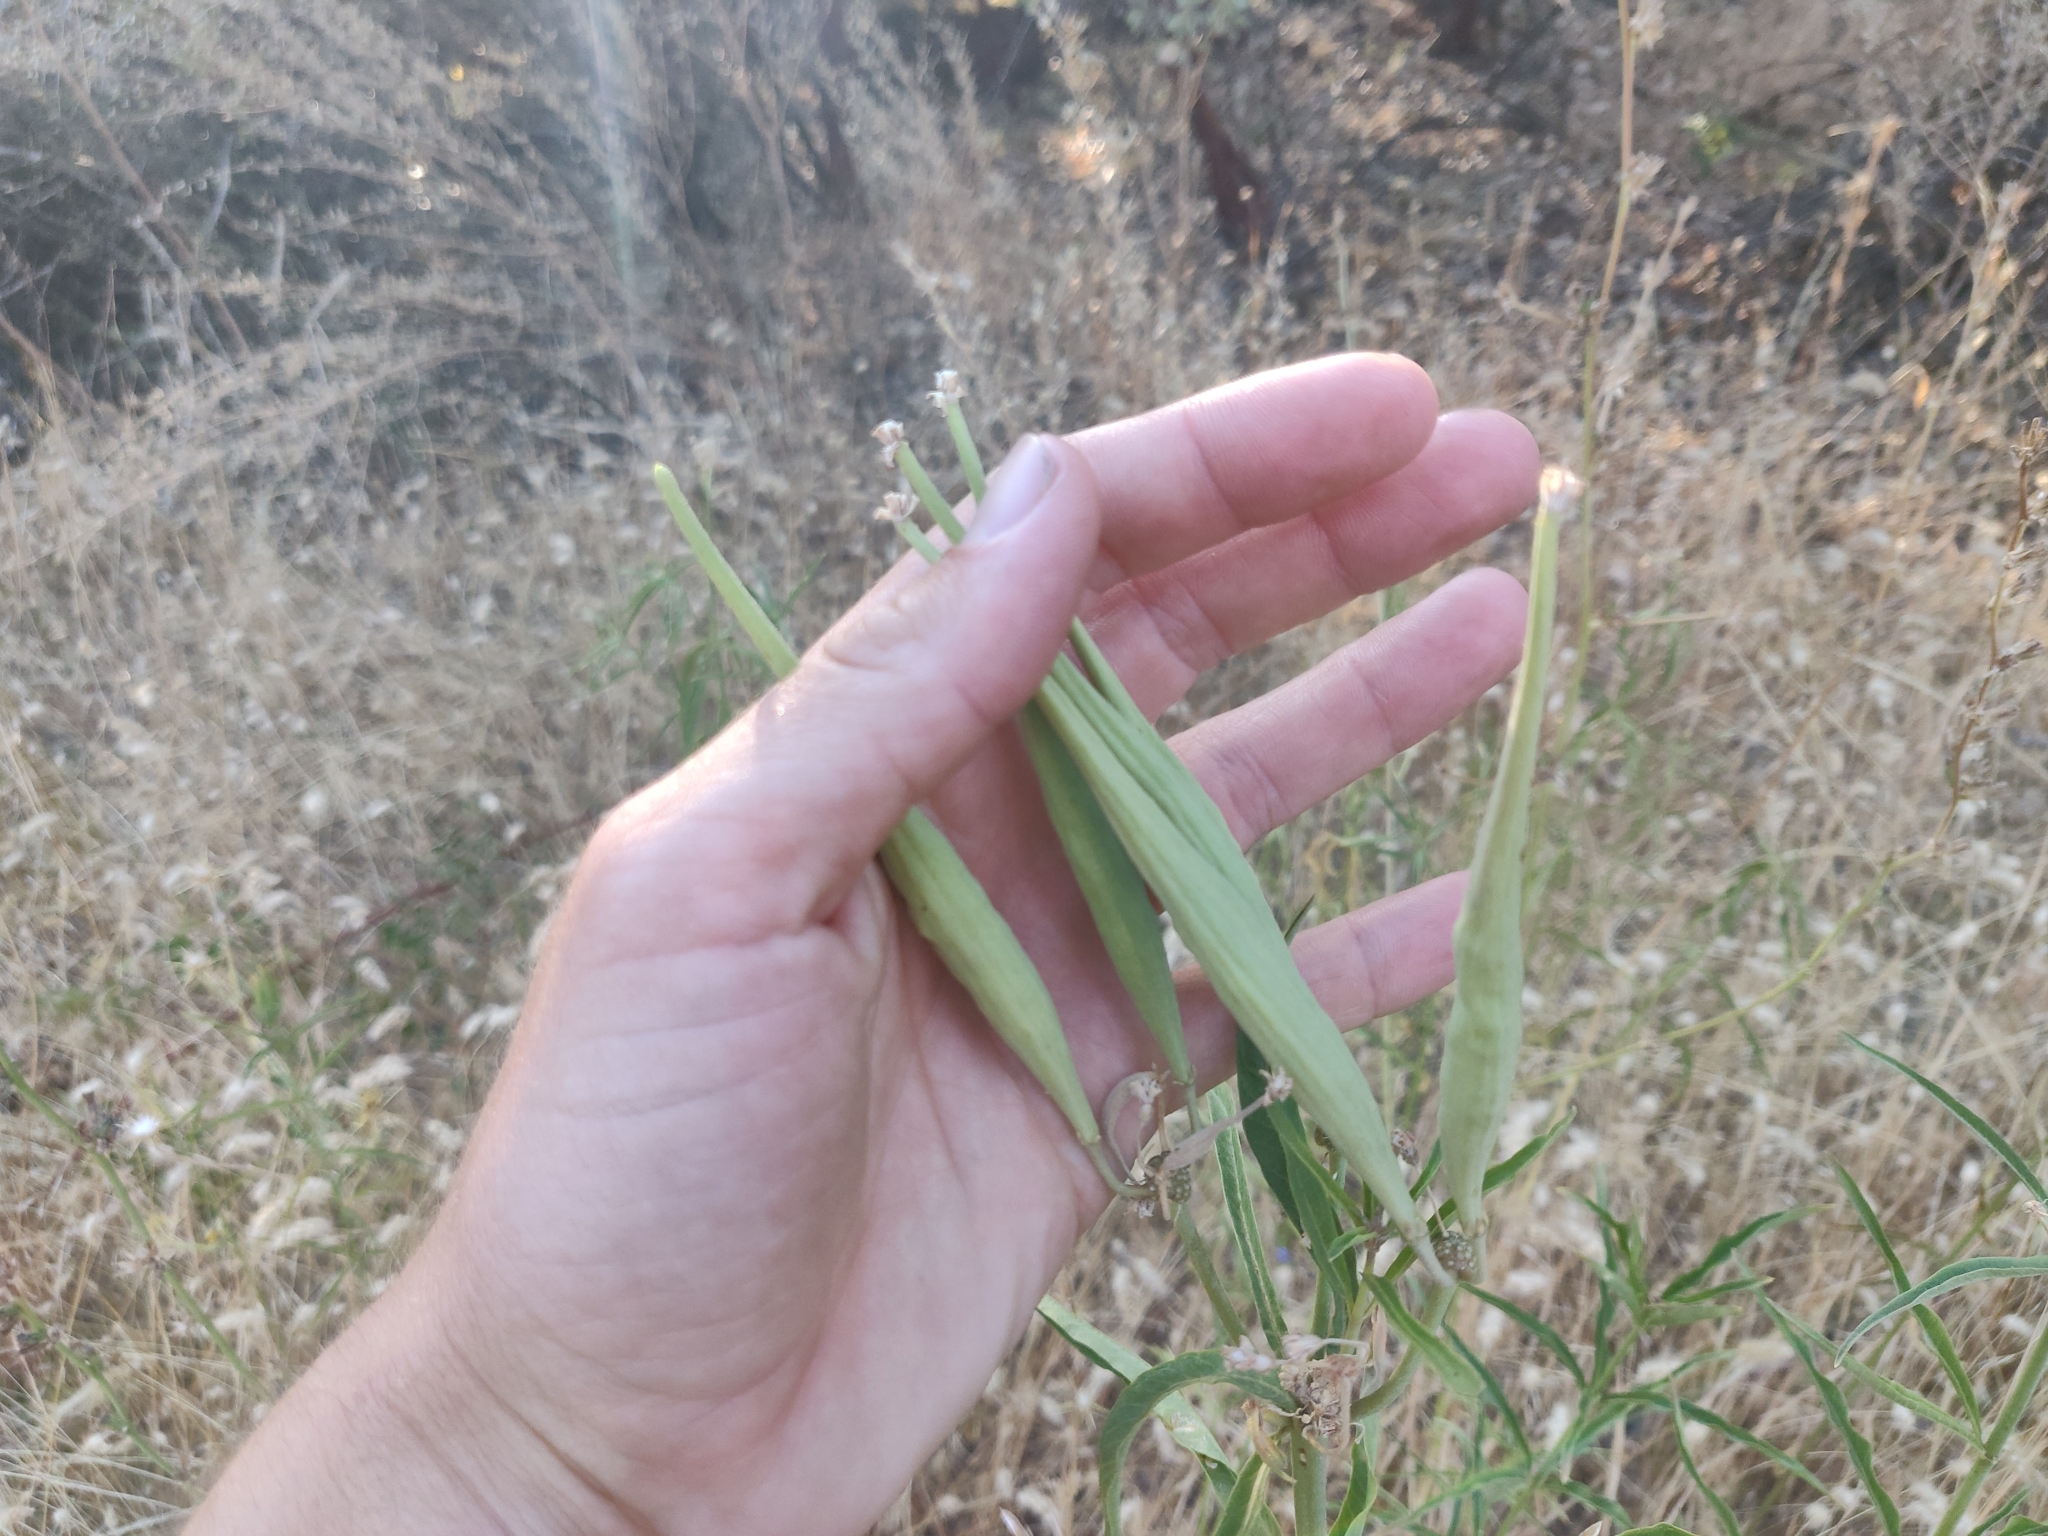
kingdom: Plantae
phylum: Tracheophyta
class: Magnoliopsida
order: Gentianales
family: Apocynaceae
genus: Asclepias
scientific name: Asclepias fascicularis
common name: Mexican milkweed
